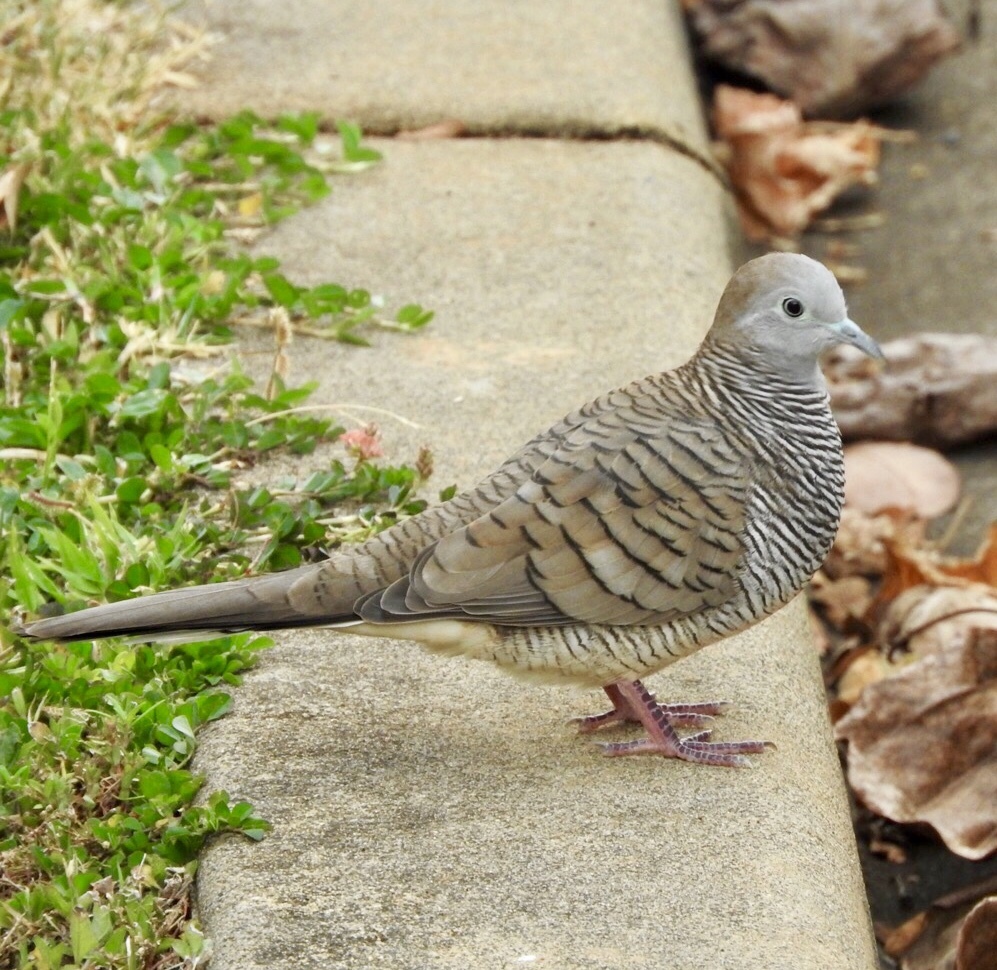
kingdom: Animalia
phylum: Chordata
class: Aves
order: Columbiformes
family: Columbidae
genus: Geopelia
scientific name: Geopelia striata
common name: Zebra dove
